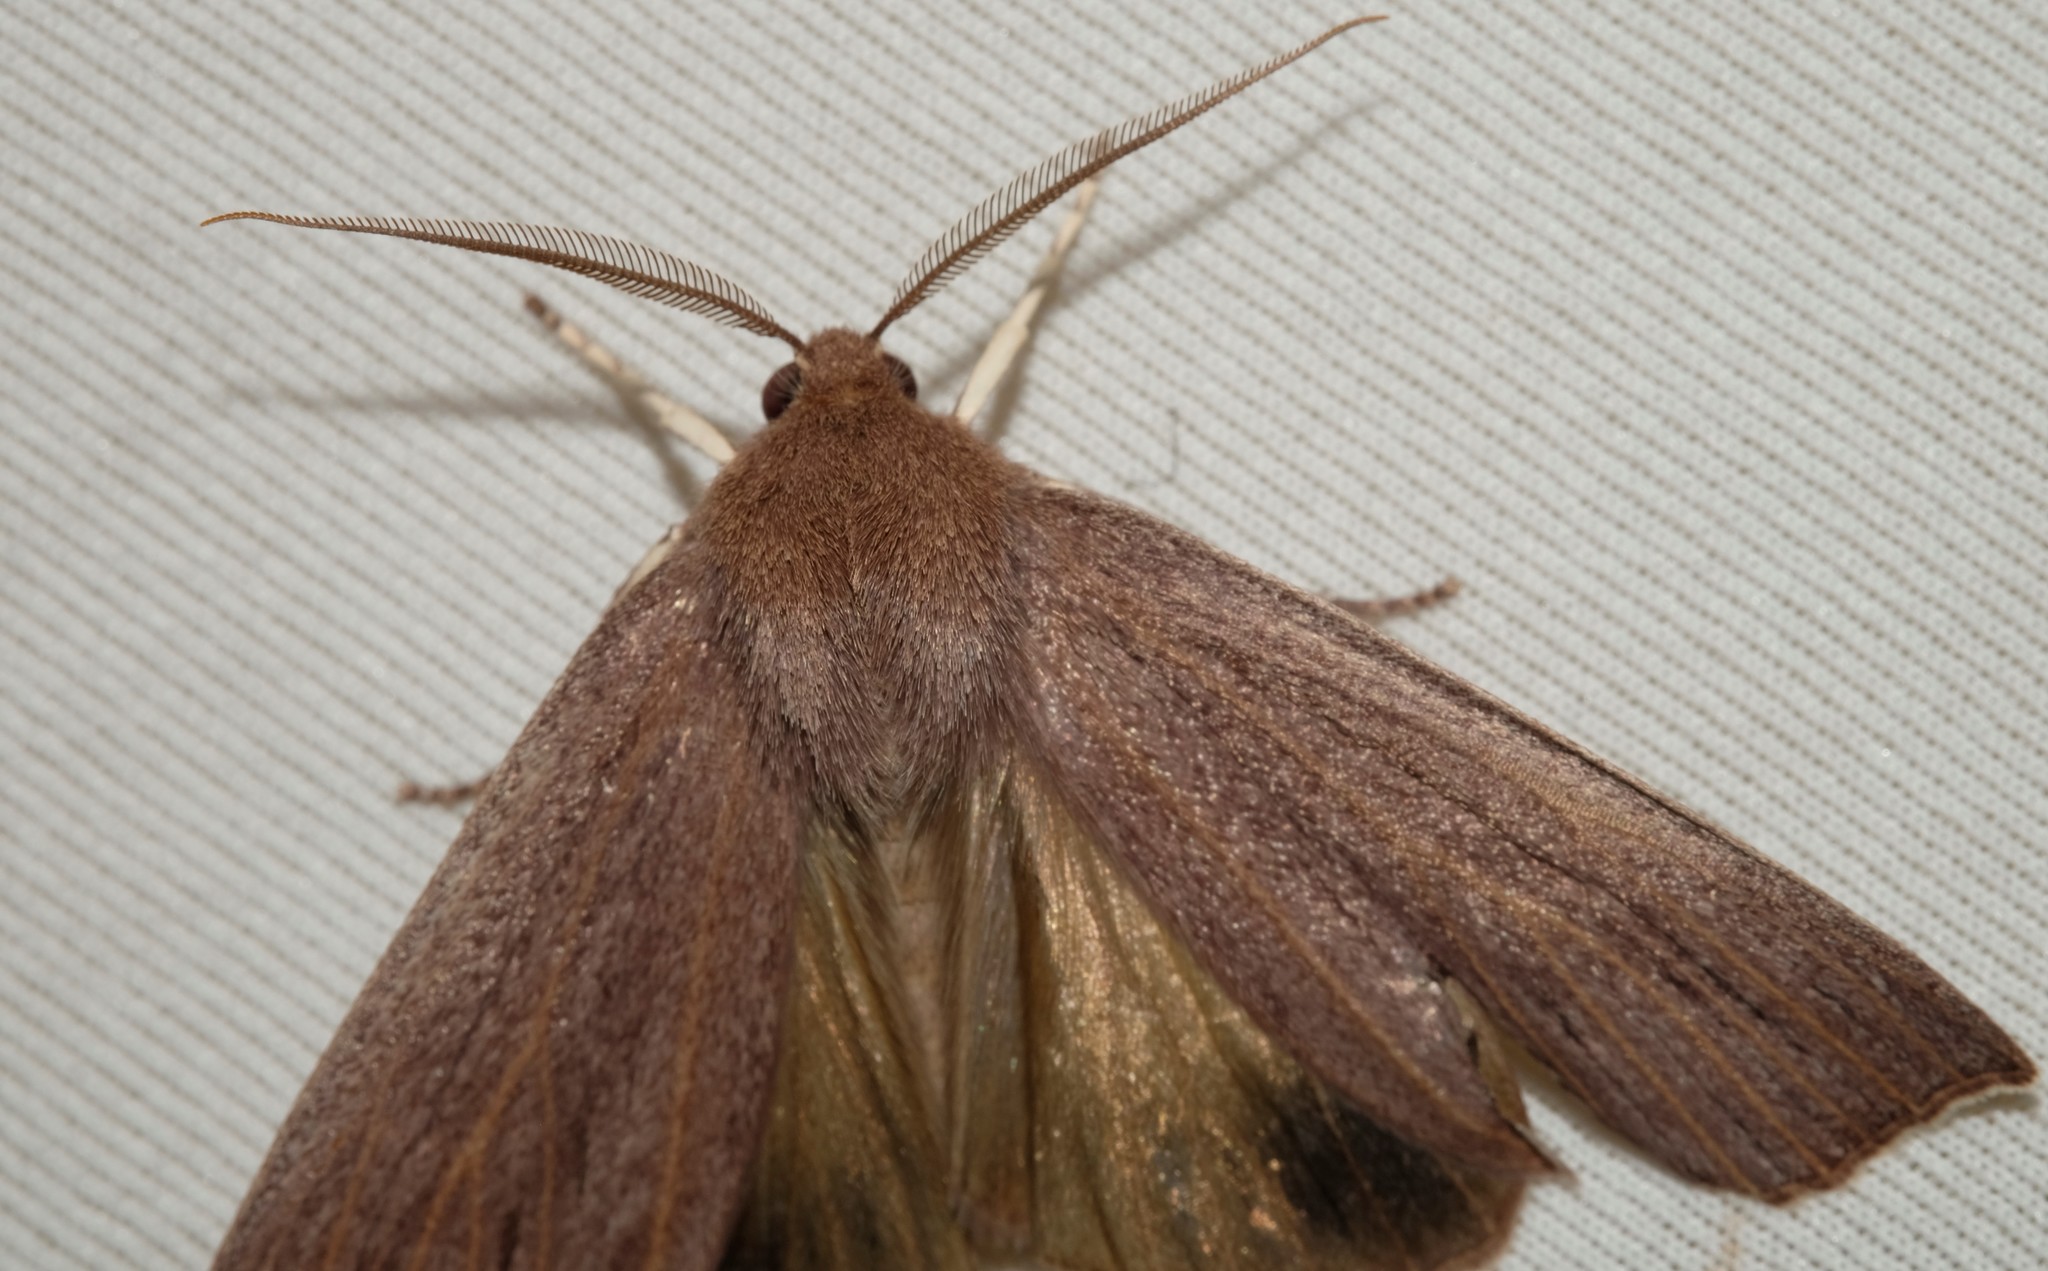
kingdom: Animalia
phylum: Arthropoda
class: Insecta
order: Lepidoptera
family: Geometridae
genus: Palleopa
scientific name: Palleopa innotata
